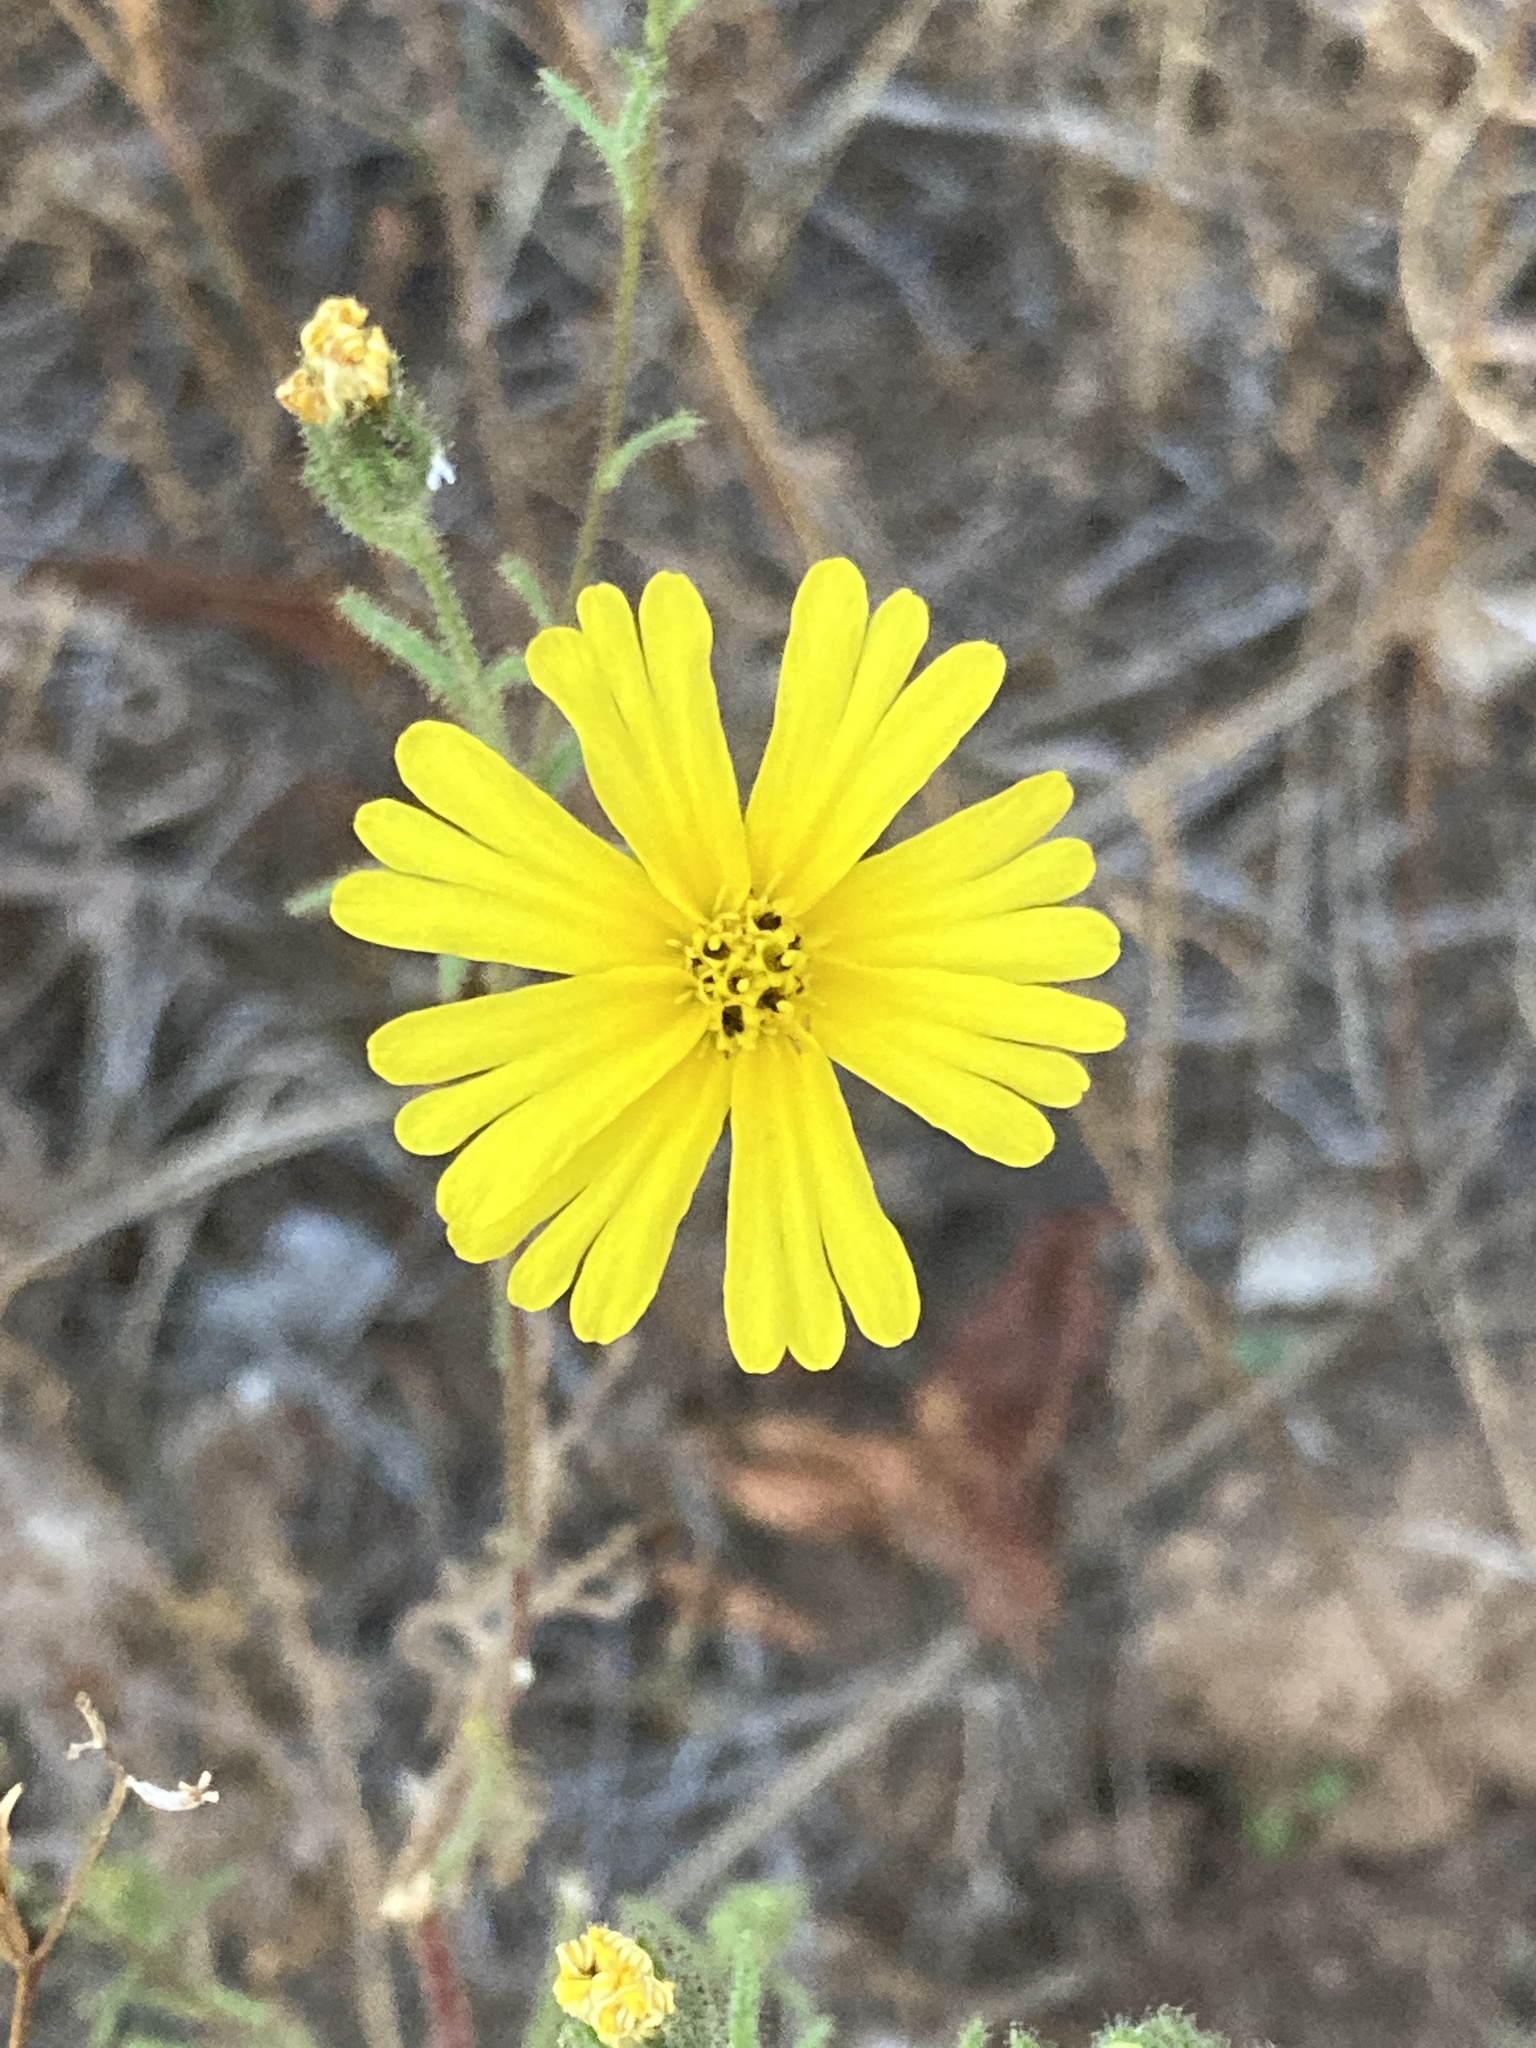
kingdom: Plantae
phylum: Tracheophyta
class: Magnoliopsida
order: Asterales
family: Asteraceae
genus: Madia
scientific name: Madia elegans
